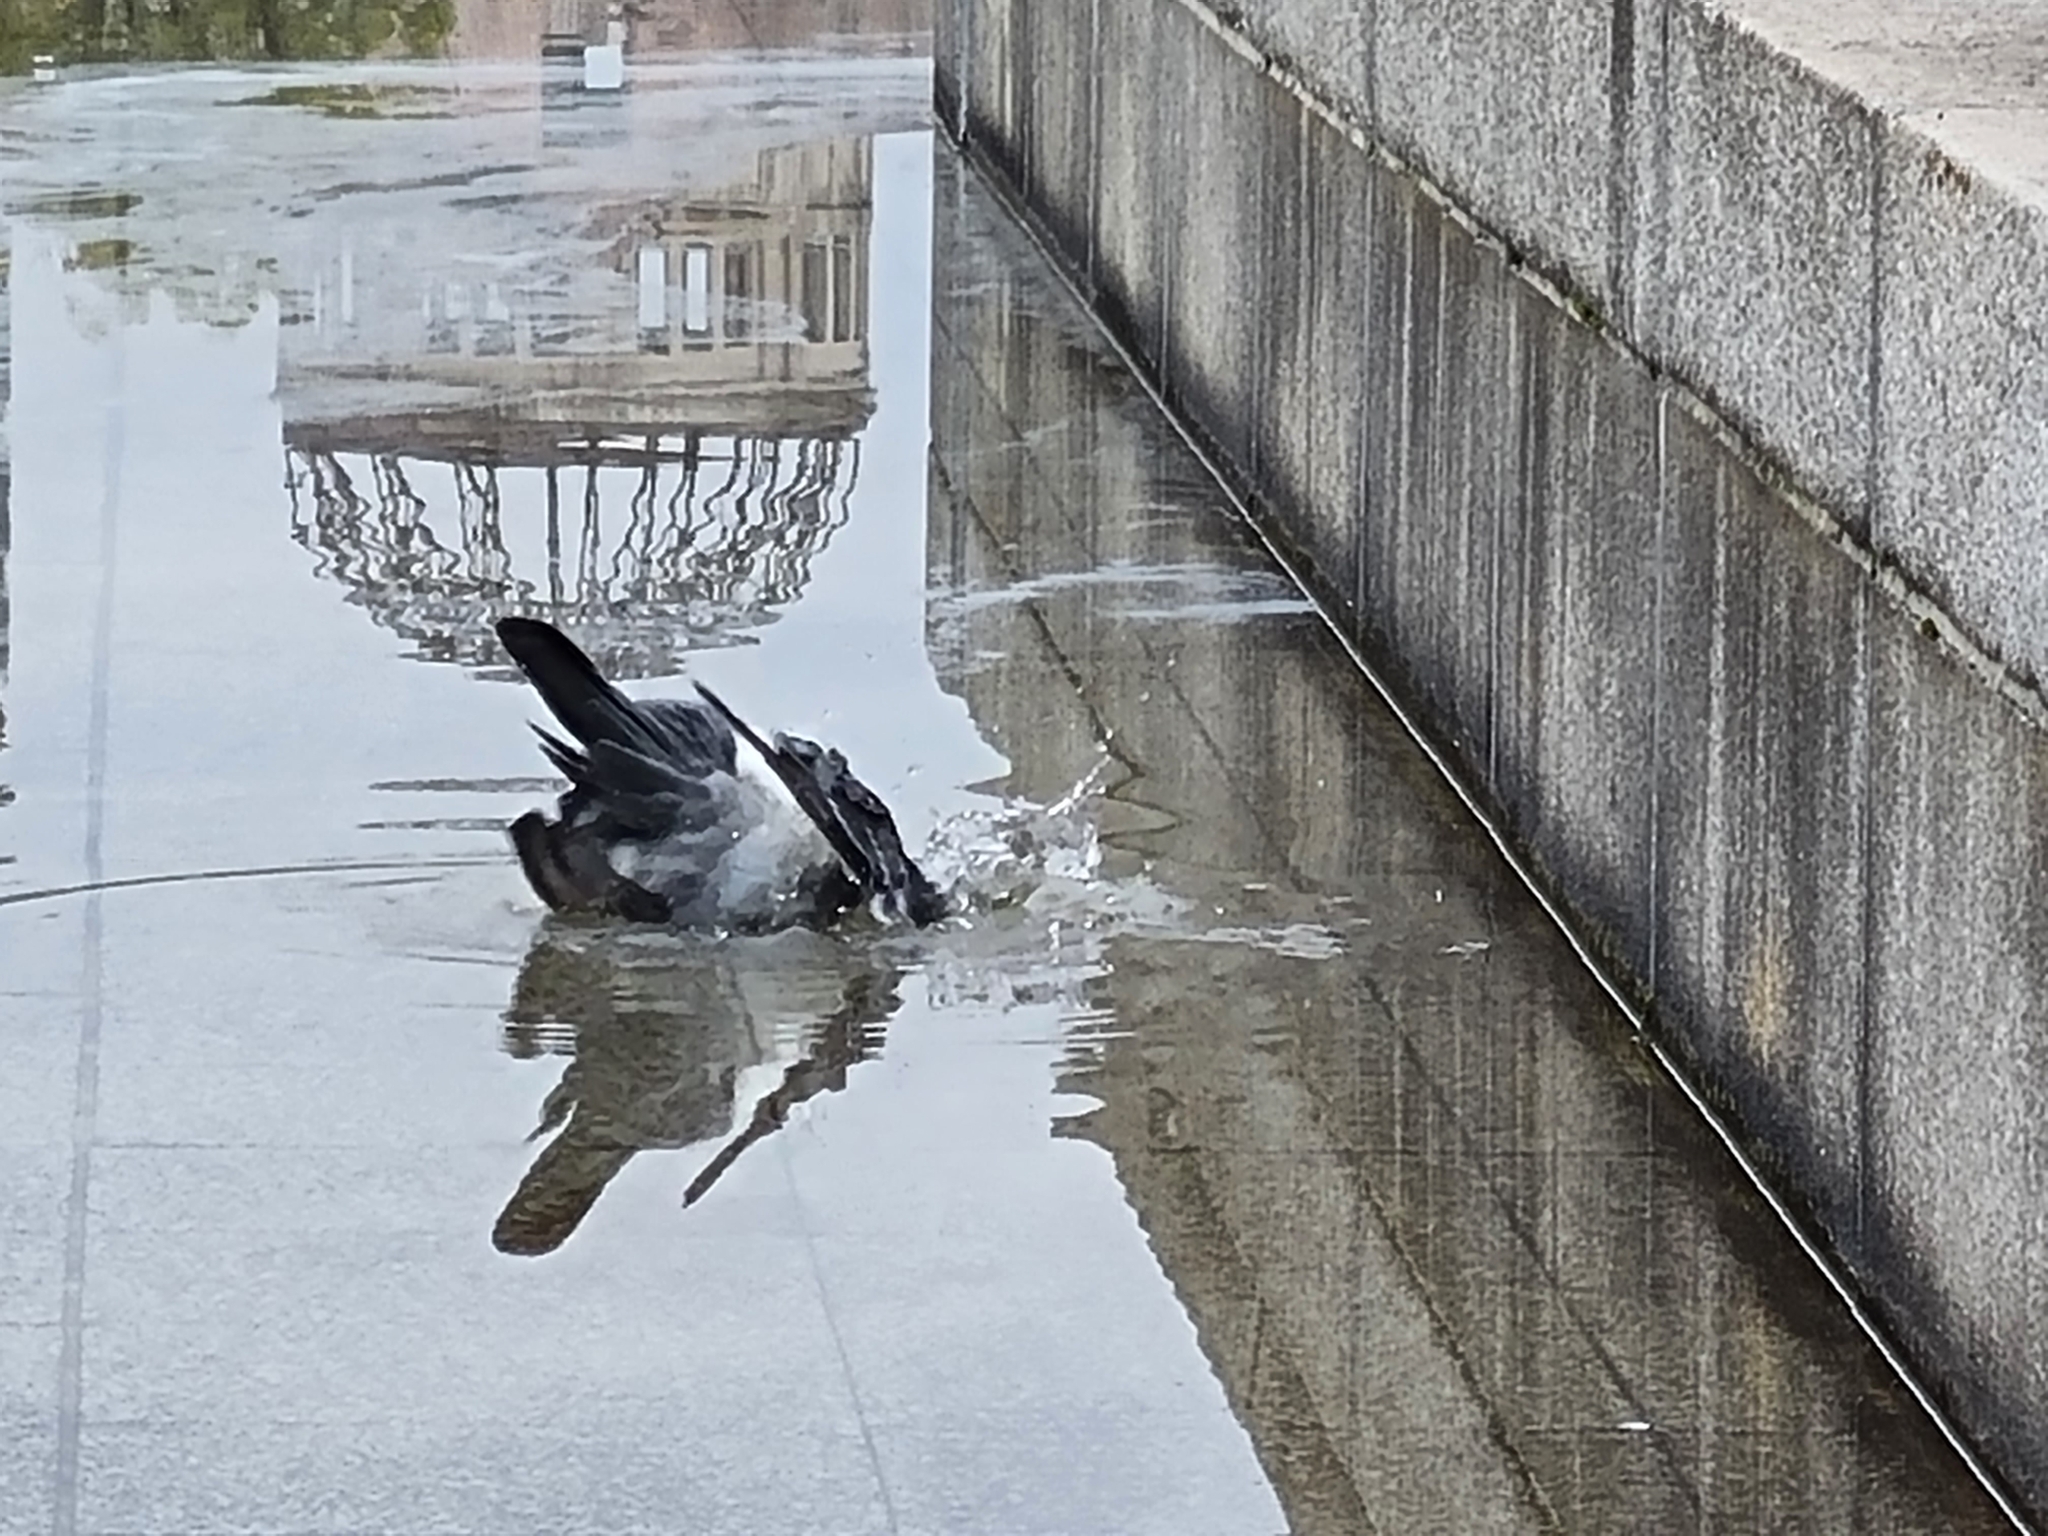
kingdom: Animalia
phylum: Chordata
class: Aves
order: Columbiformes
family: Columbidae
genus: Columba
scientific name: Columba livia
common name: Rock pigeon
